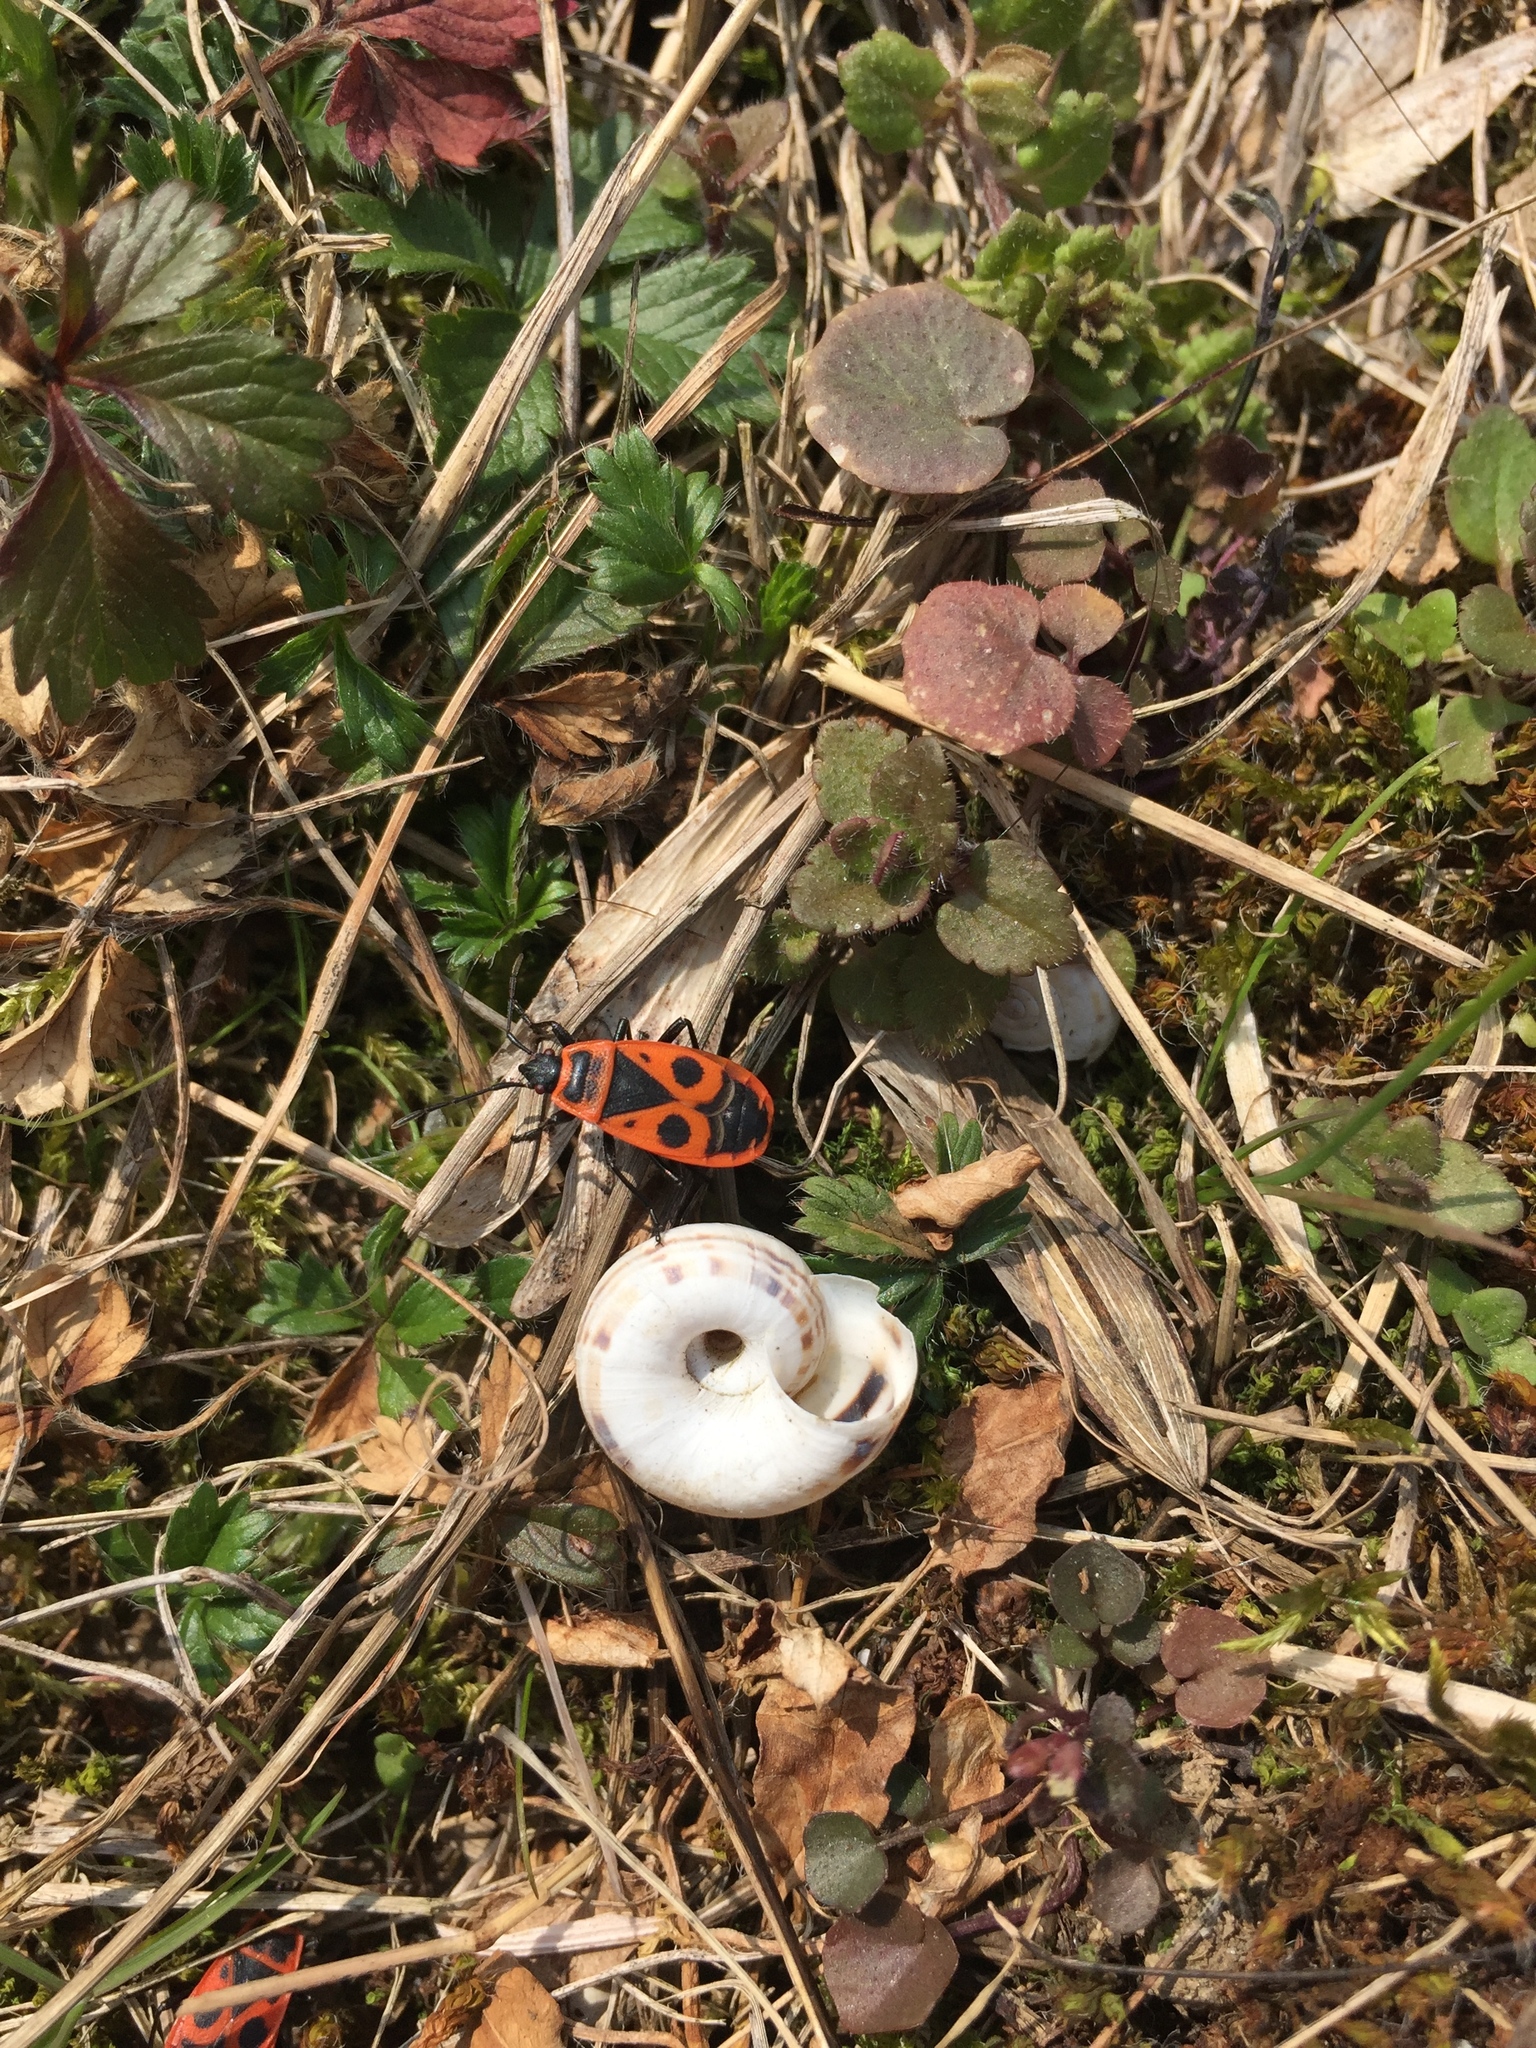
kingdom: Animalia
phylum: Arthropoda
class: Insecta
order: Hemiptera
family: Pyrrhocoridae
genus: Pyrrhocoris
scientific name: Pyrrhocoris apterus
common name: Firebug
